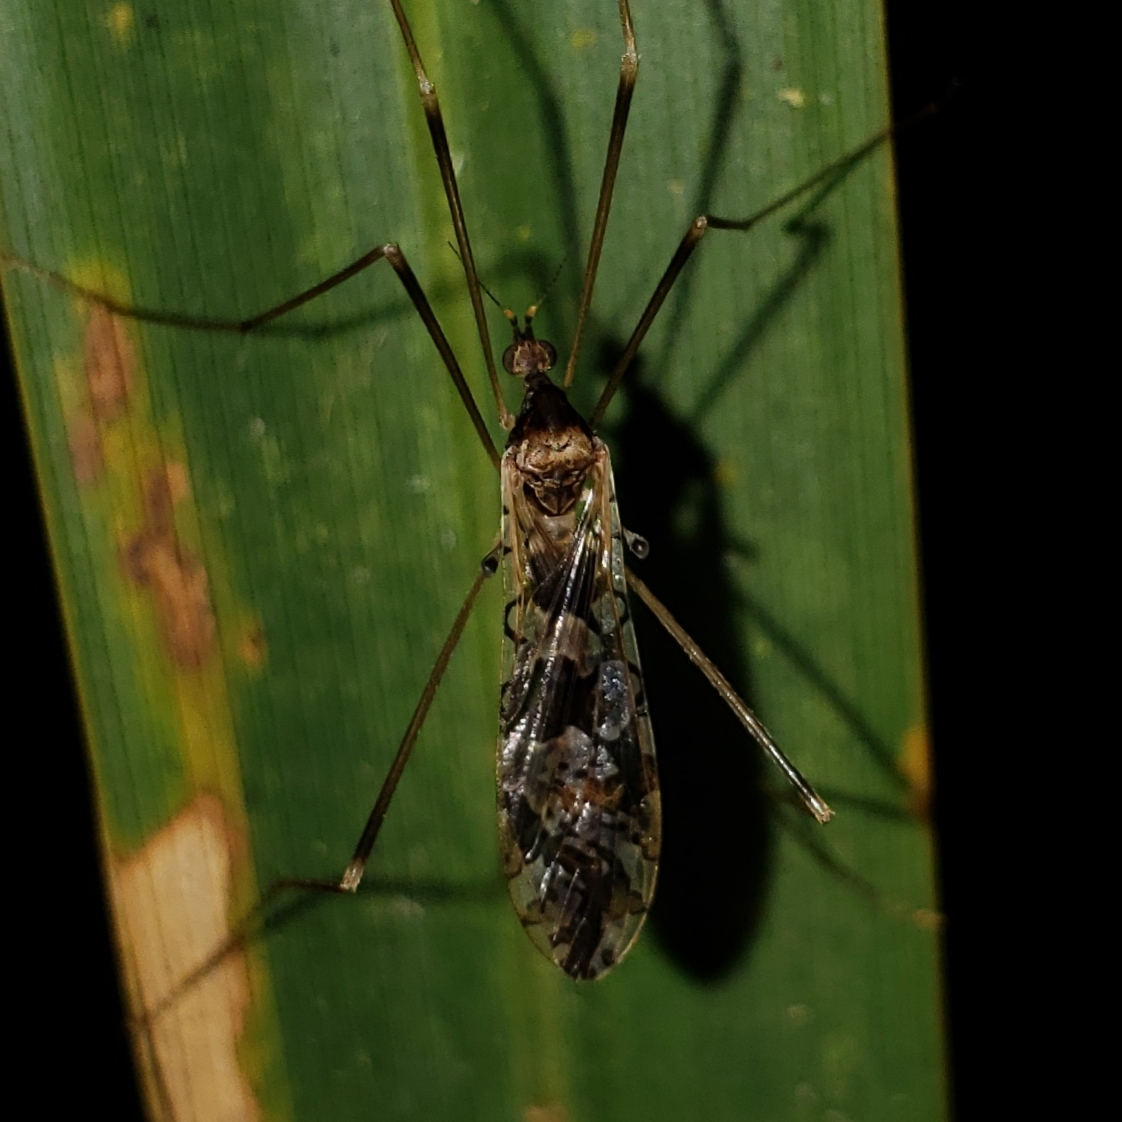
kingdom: Animalia
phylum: Arthropoda
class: Insecta
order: Diptera
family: Limoniidae
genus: Epiphragma
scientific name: Epiphragma solatrix
